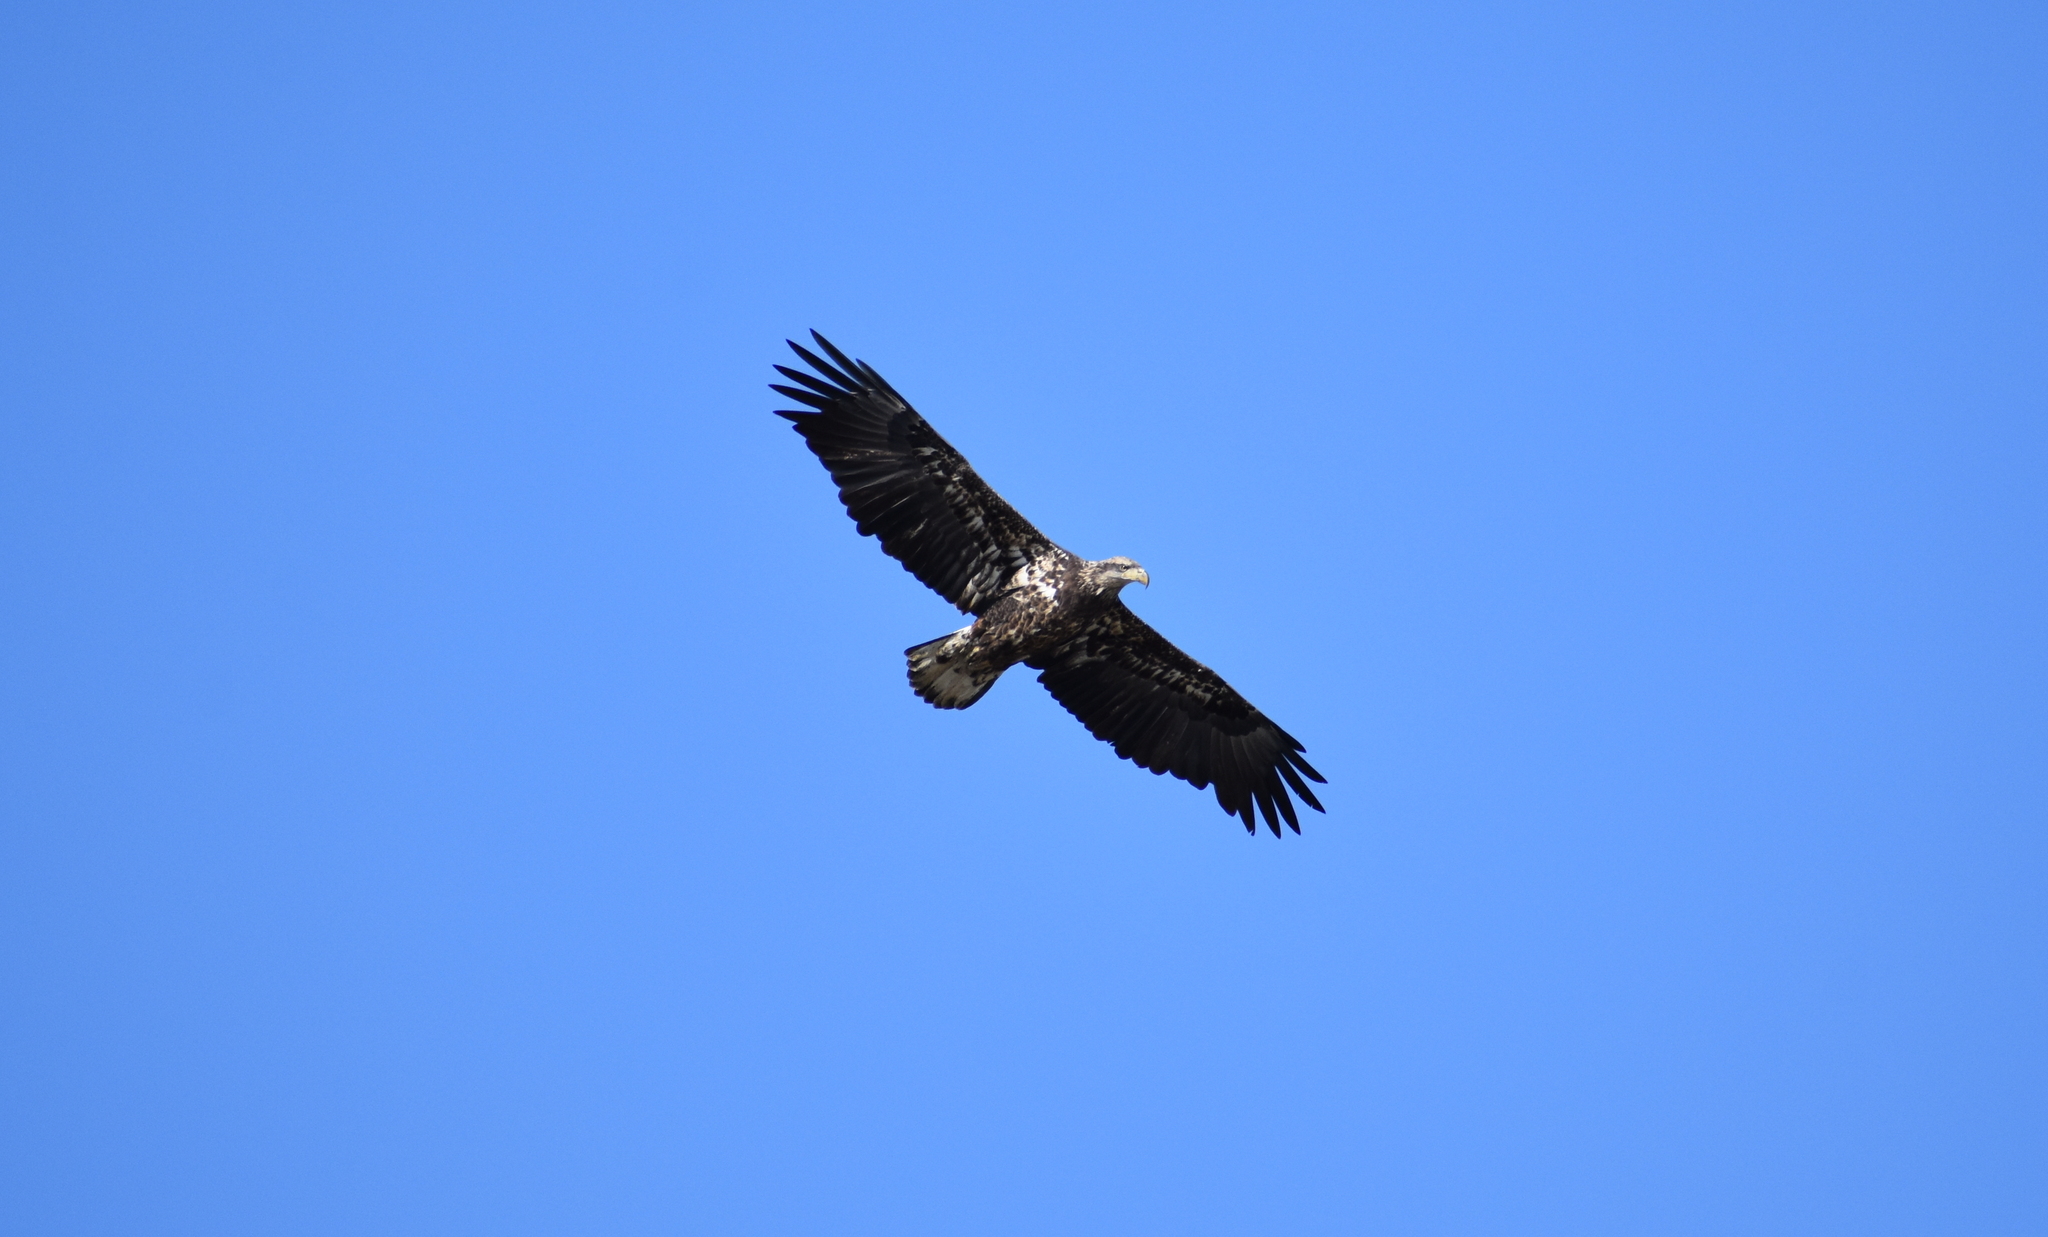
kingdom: Animalia
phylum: Chordata
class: Aves
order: Accipitriformes
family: Accipitridae
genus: Haliaeetus
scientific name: Haliaeetus leucocephalus
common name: Bald eagle
